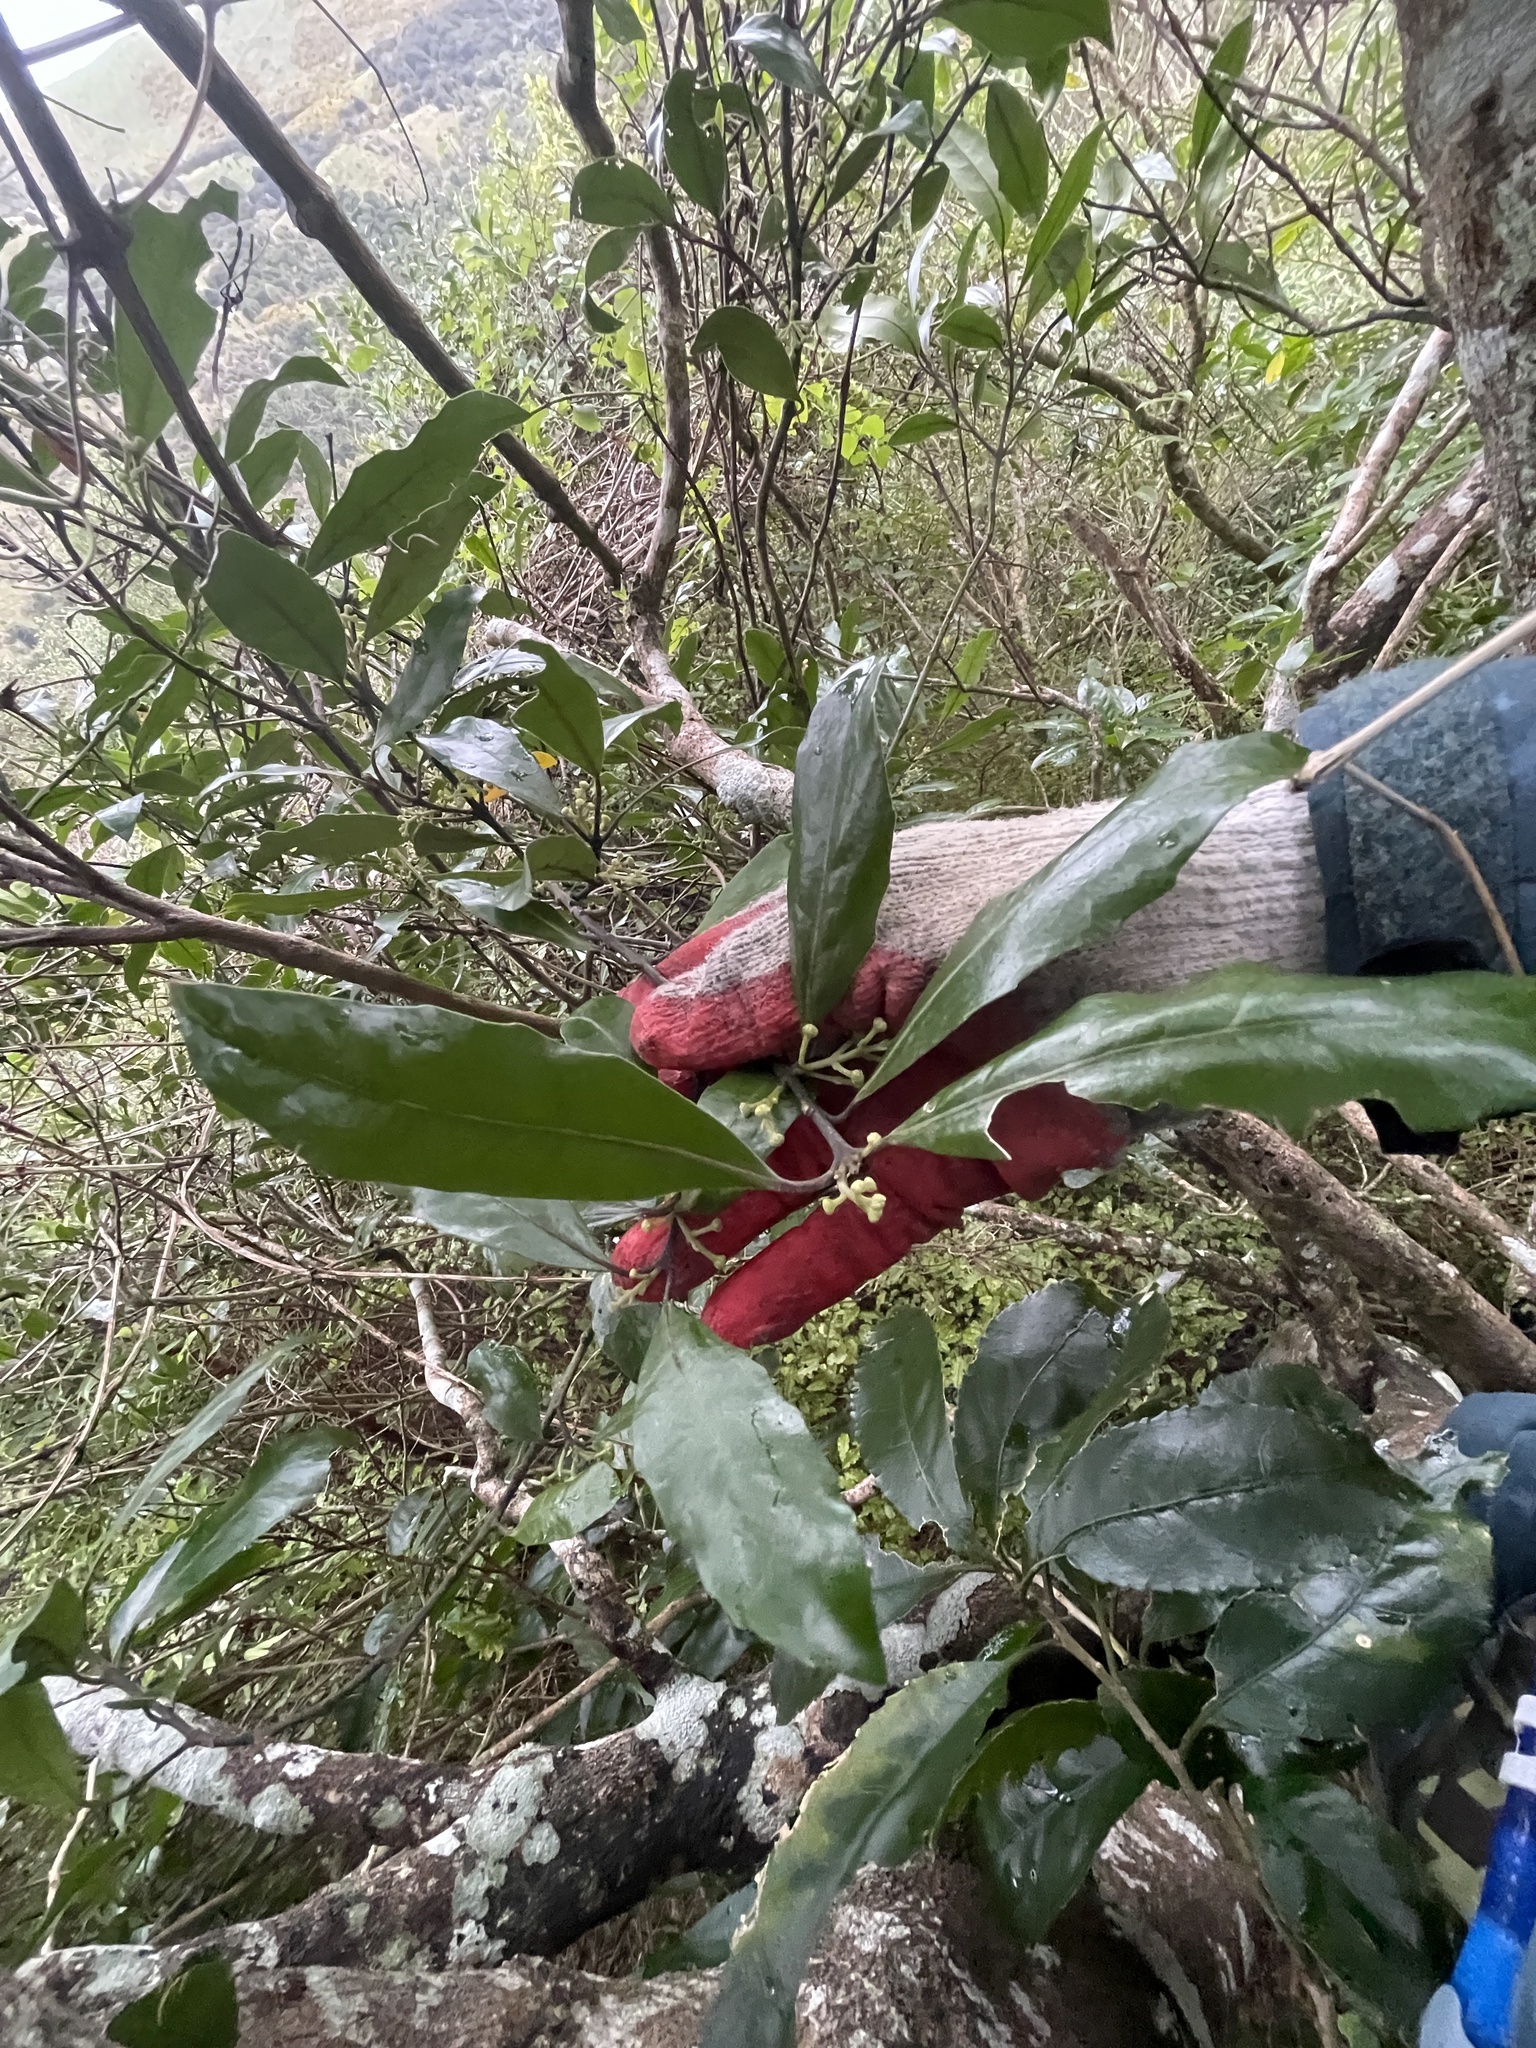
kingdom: Plantae
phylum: Tracheophyta
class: Magnoliopsida
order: Laurales
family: Monimiaceae
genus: Hedycarya
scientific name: Hedycarya arborea
